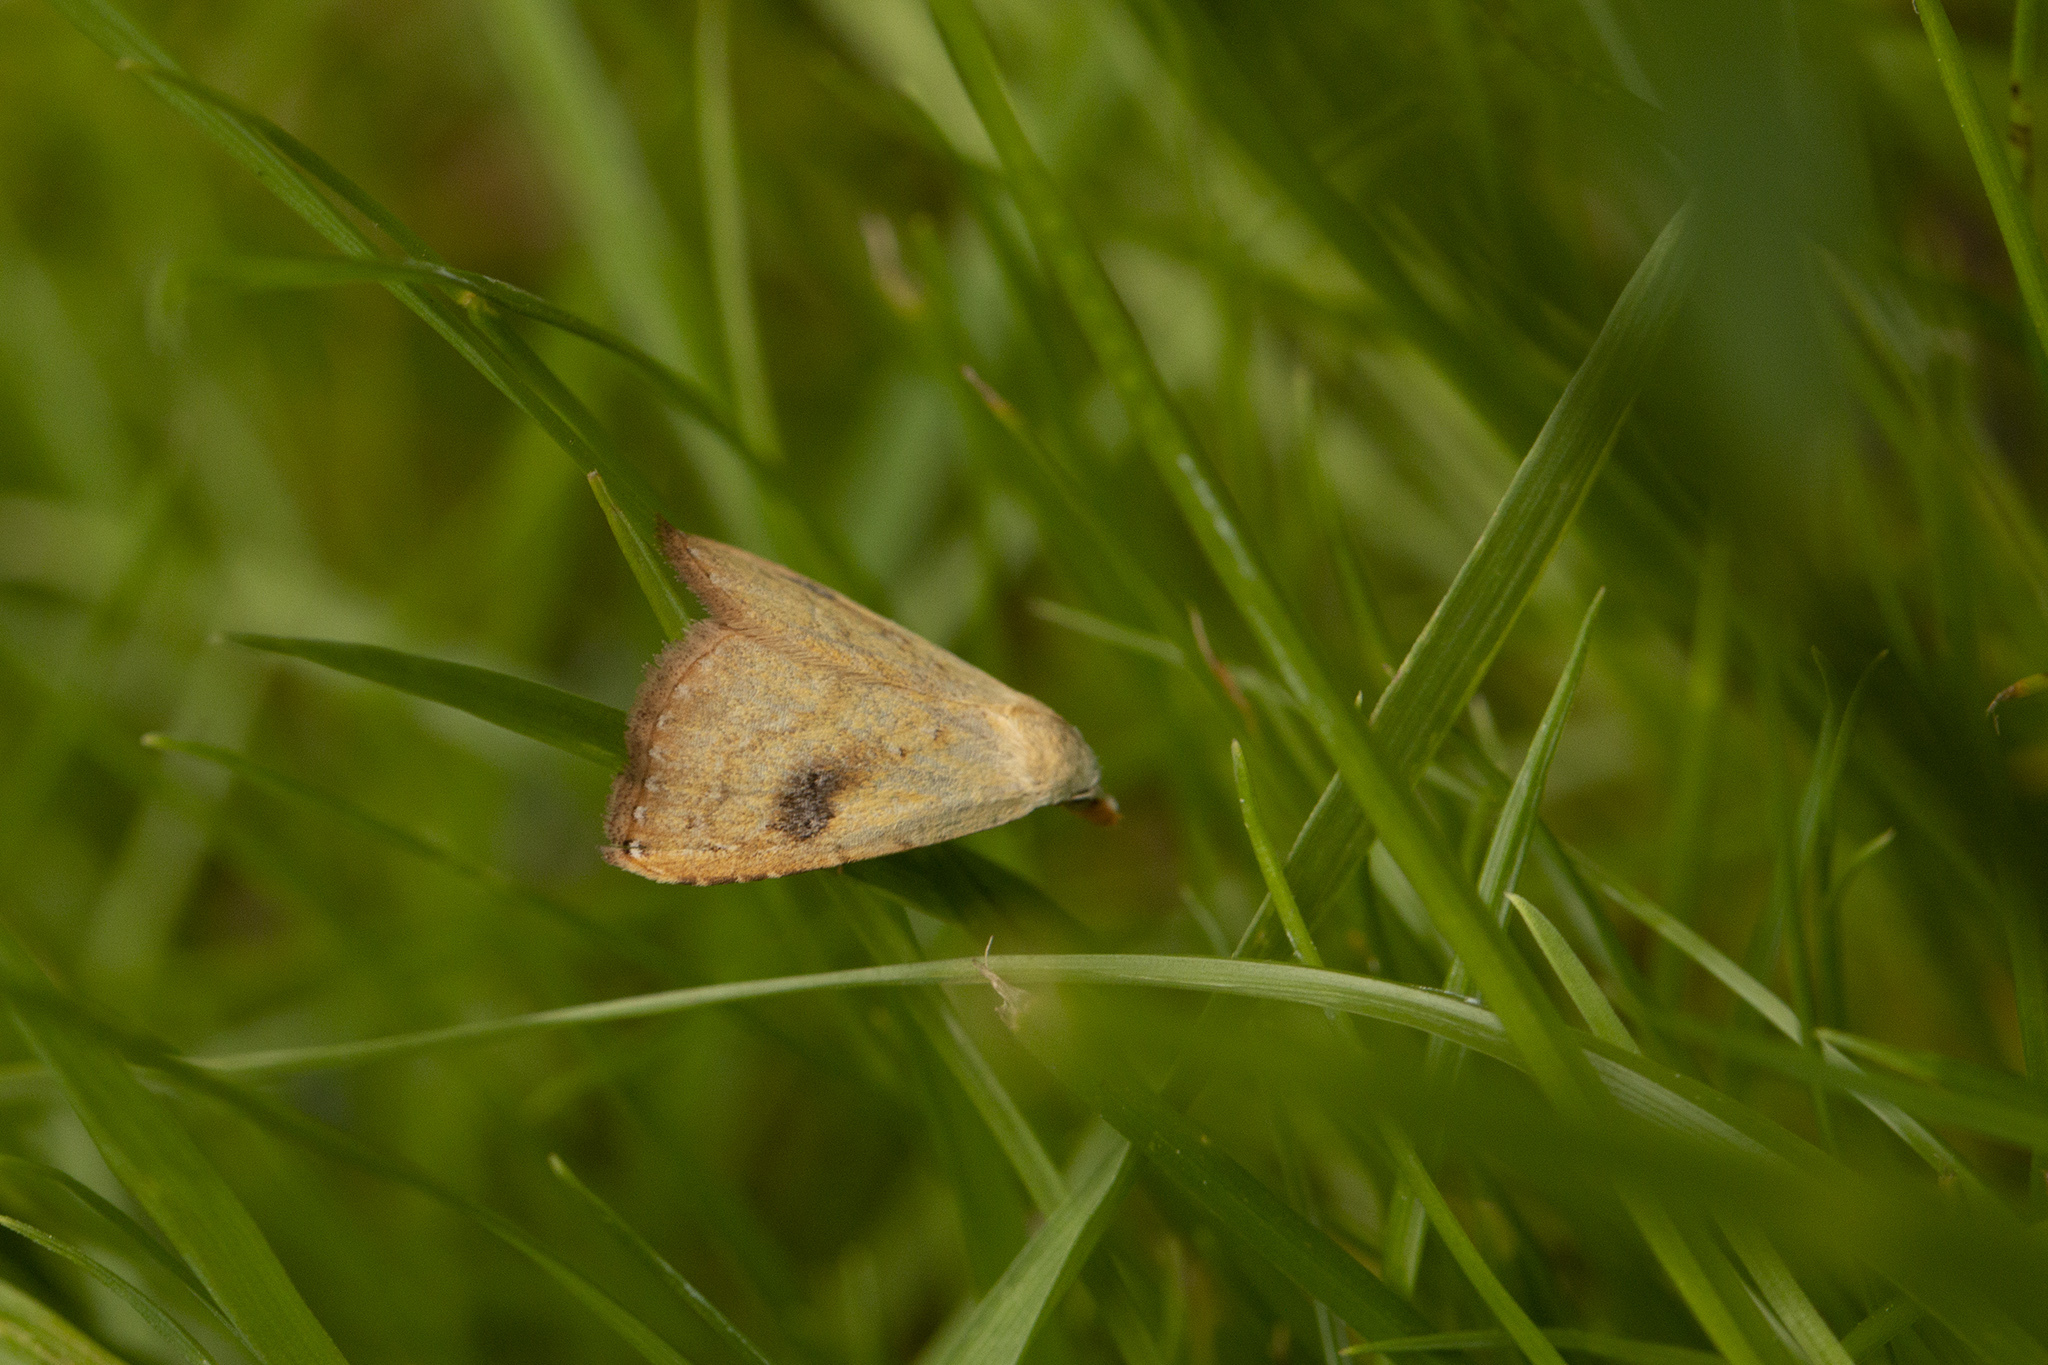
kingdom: Animalia
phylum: Arthropoda
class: Insecta
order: Lepidoptera
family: Erebidae
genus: Rivula
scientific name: Rivula sericealis
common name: Straw dot
